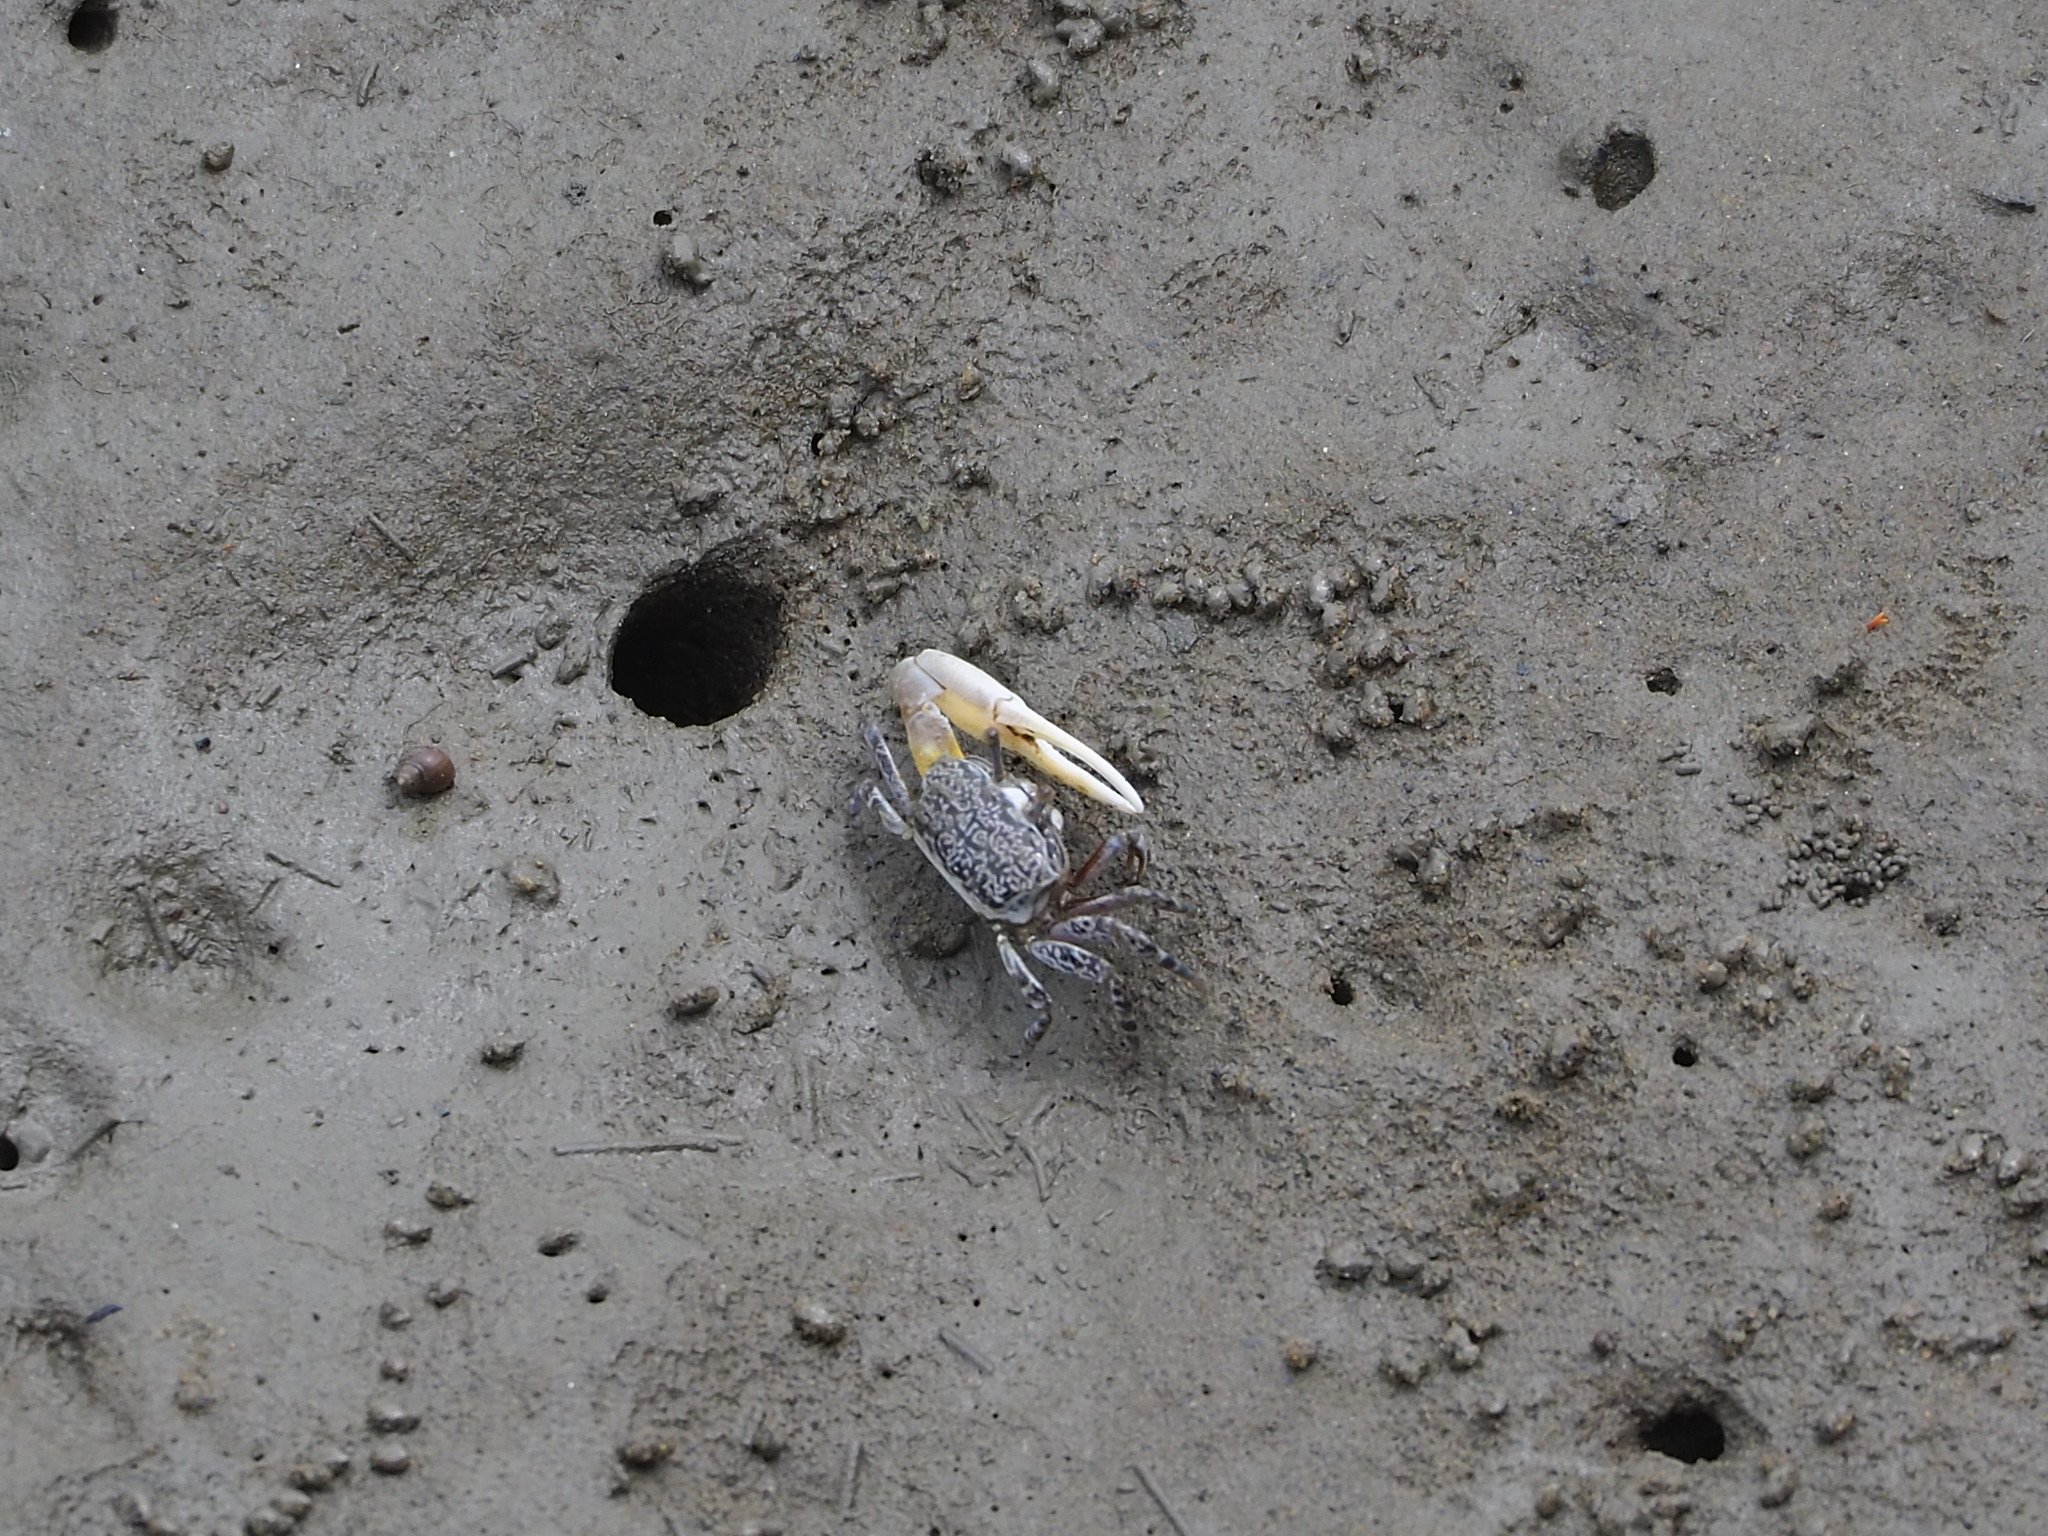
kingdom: Animalia
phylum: Arthropoda
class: Malacostraca
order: Decapoda
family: Ocypodidae
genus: Austruca
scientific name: Austruca lactea
